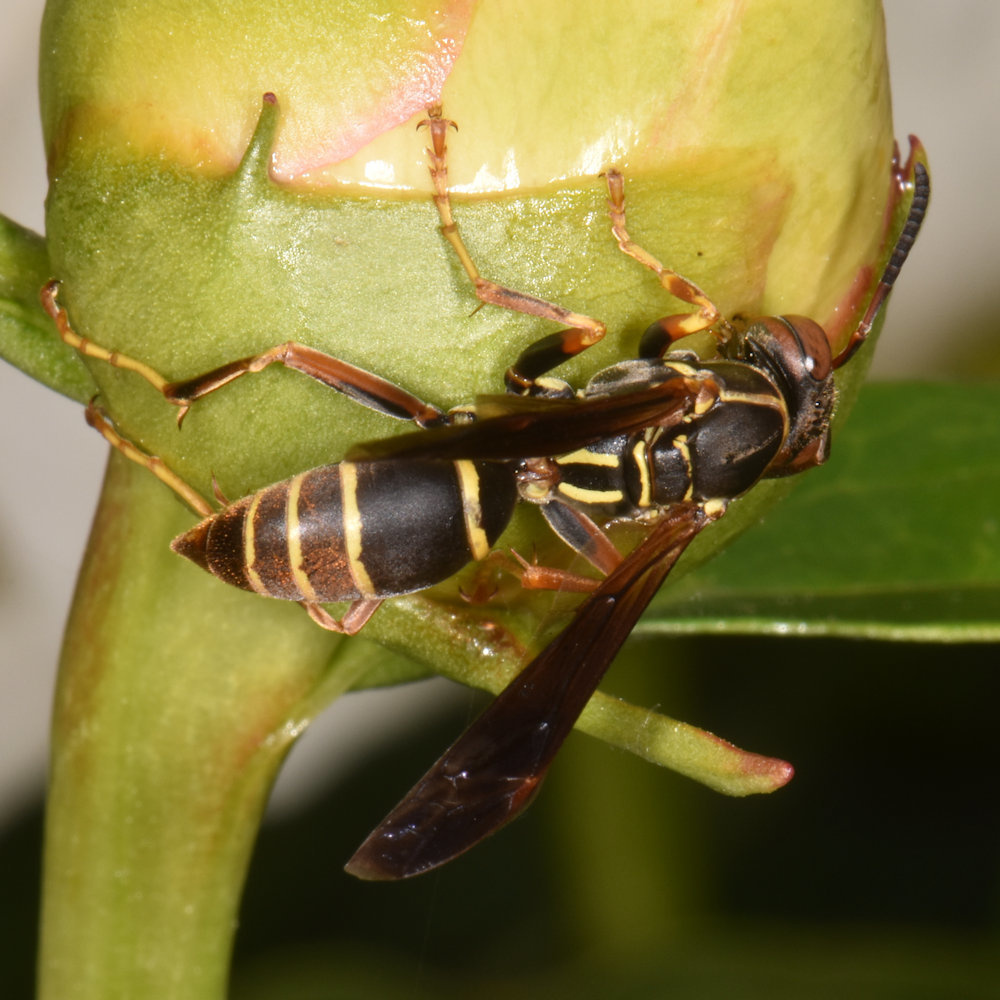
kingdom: Animalia
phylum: Arthropoda
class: Insecta
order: Hymenoptera
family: Eumenidae
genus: Polistes
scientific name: Polistes fuscatus
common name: Dark paper wasp
